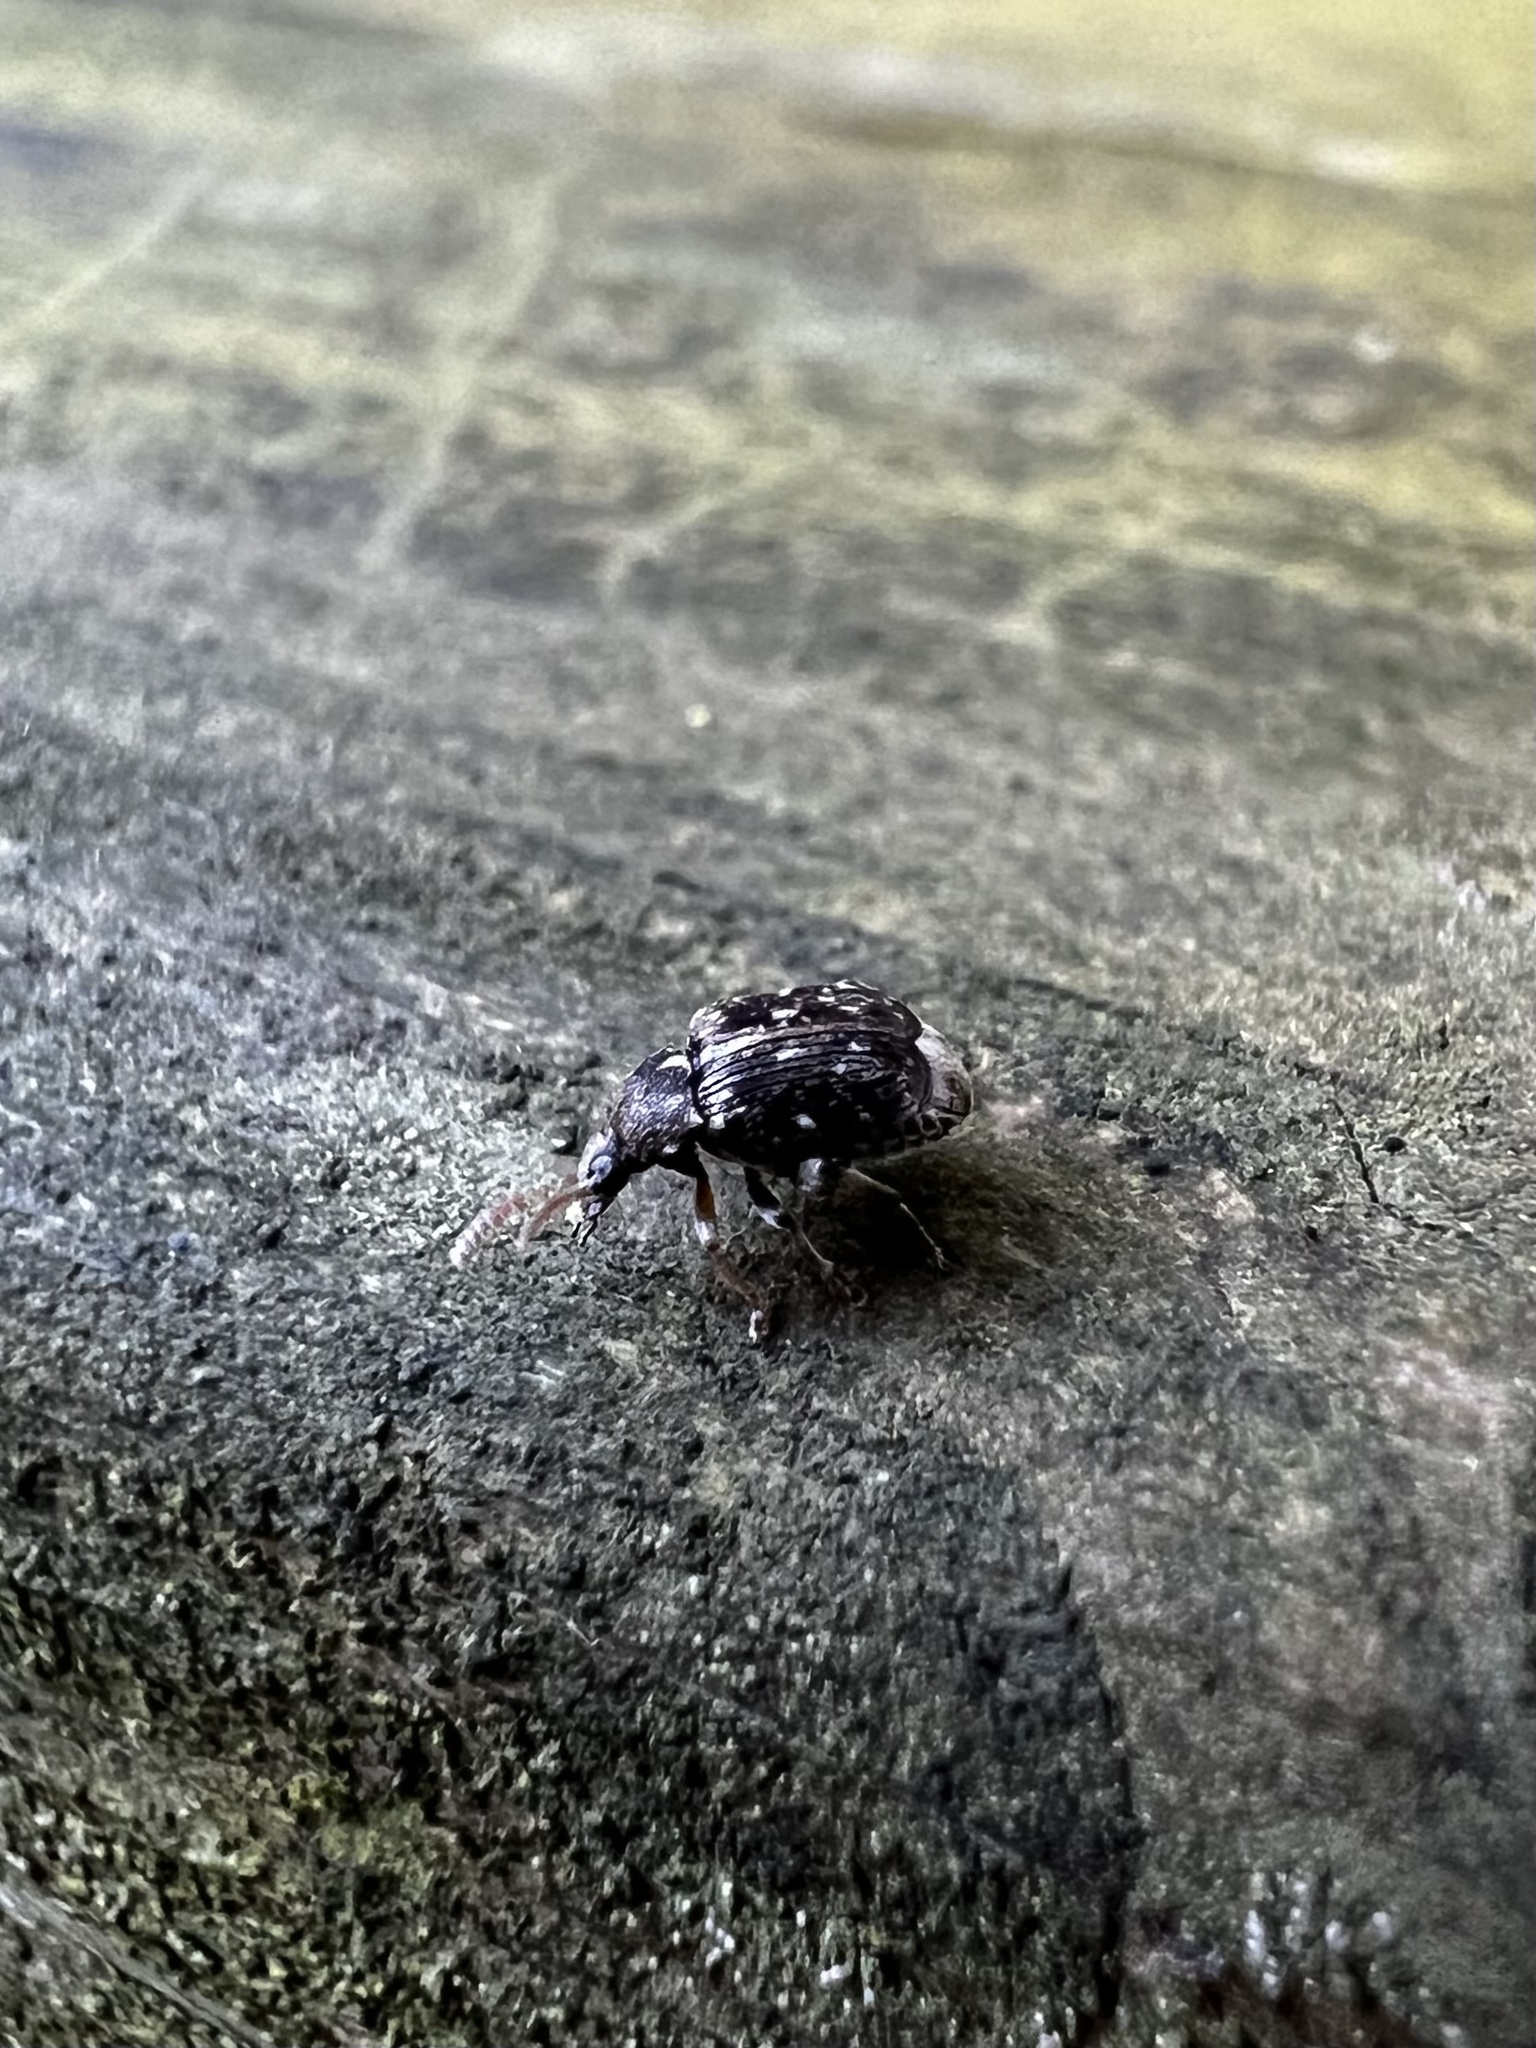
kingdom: Animalia
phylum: Arthropoda
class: Insecta
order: Coleoptera
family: Chrysomelidae
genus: Bruchus
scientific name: Bruchus affinis
